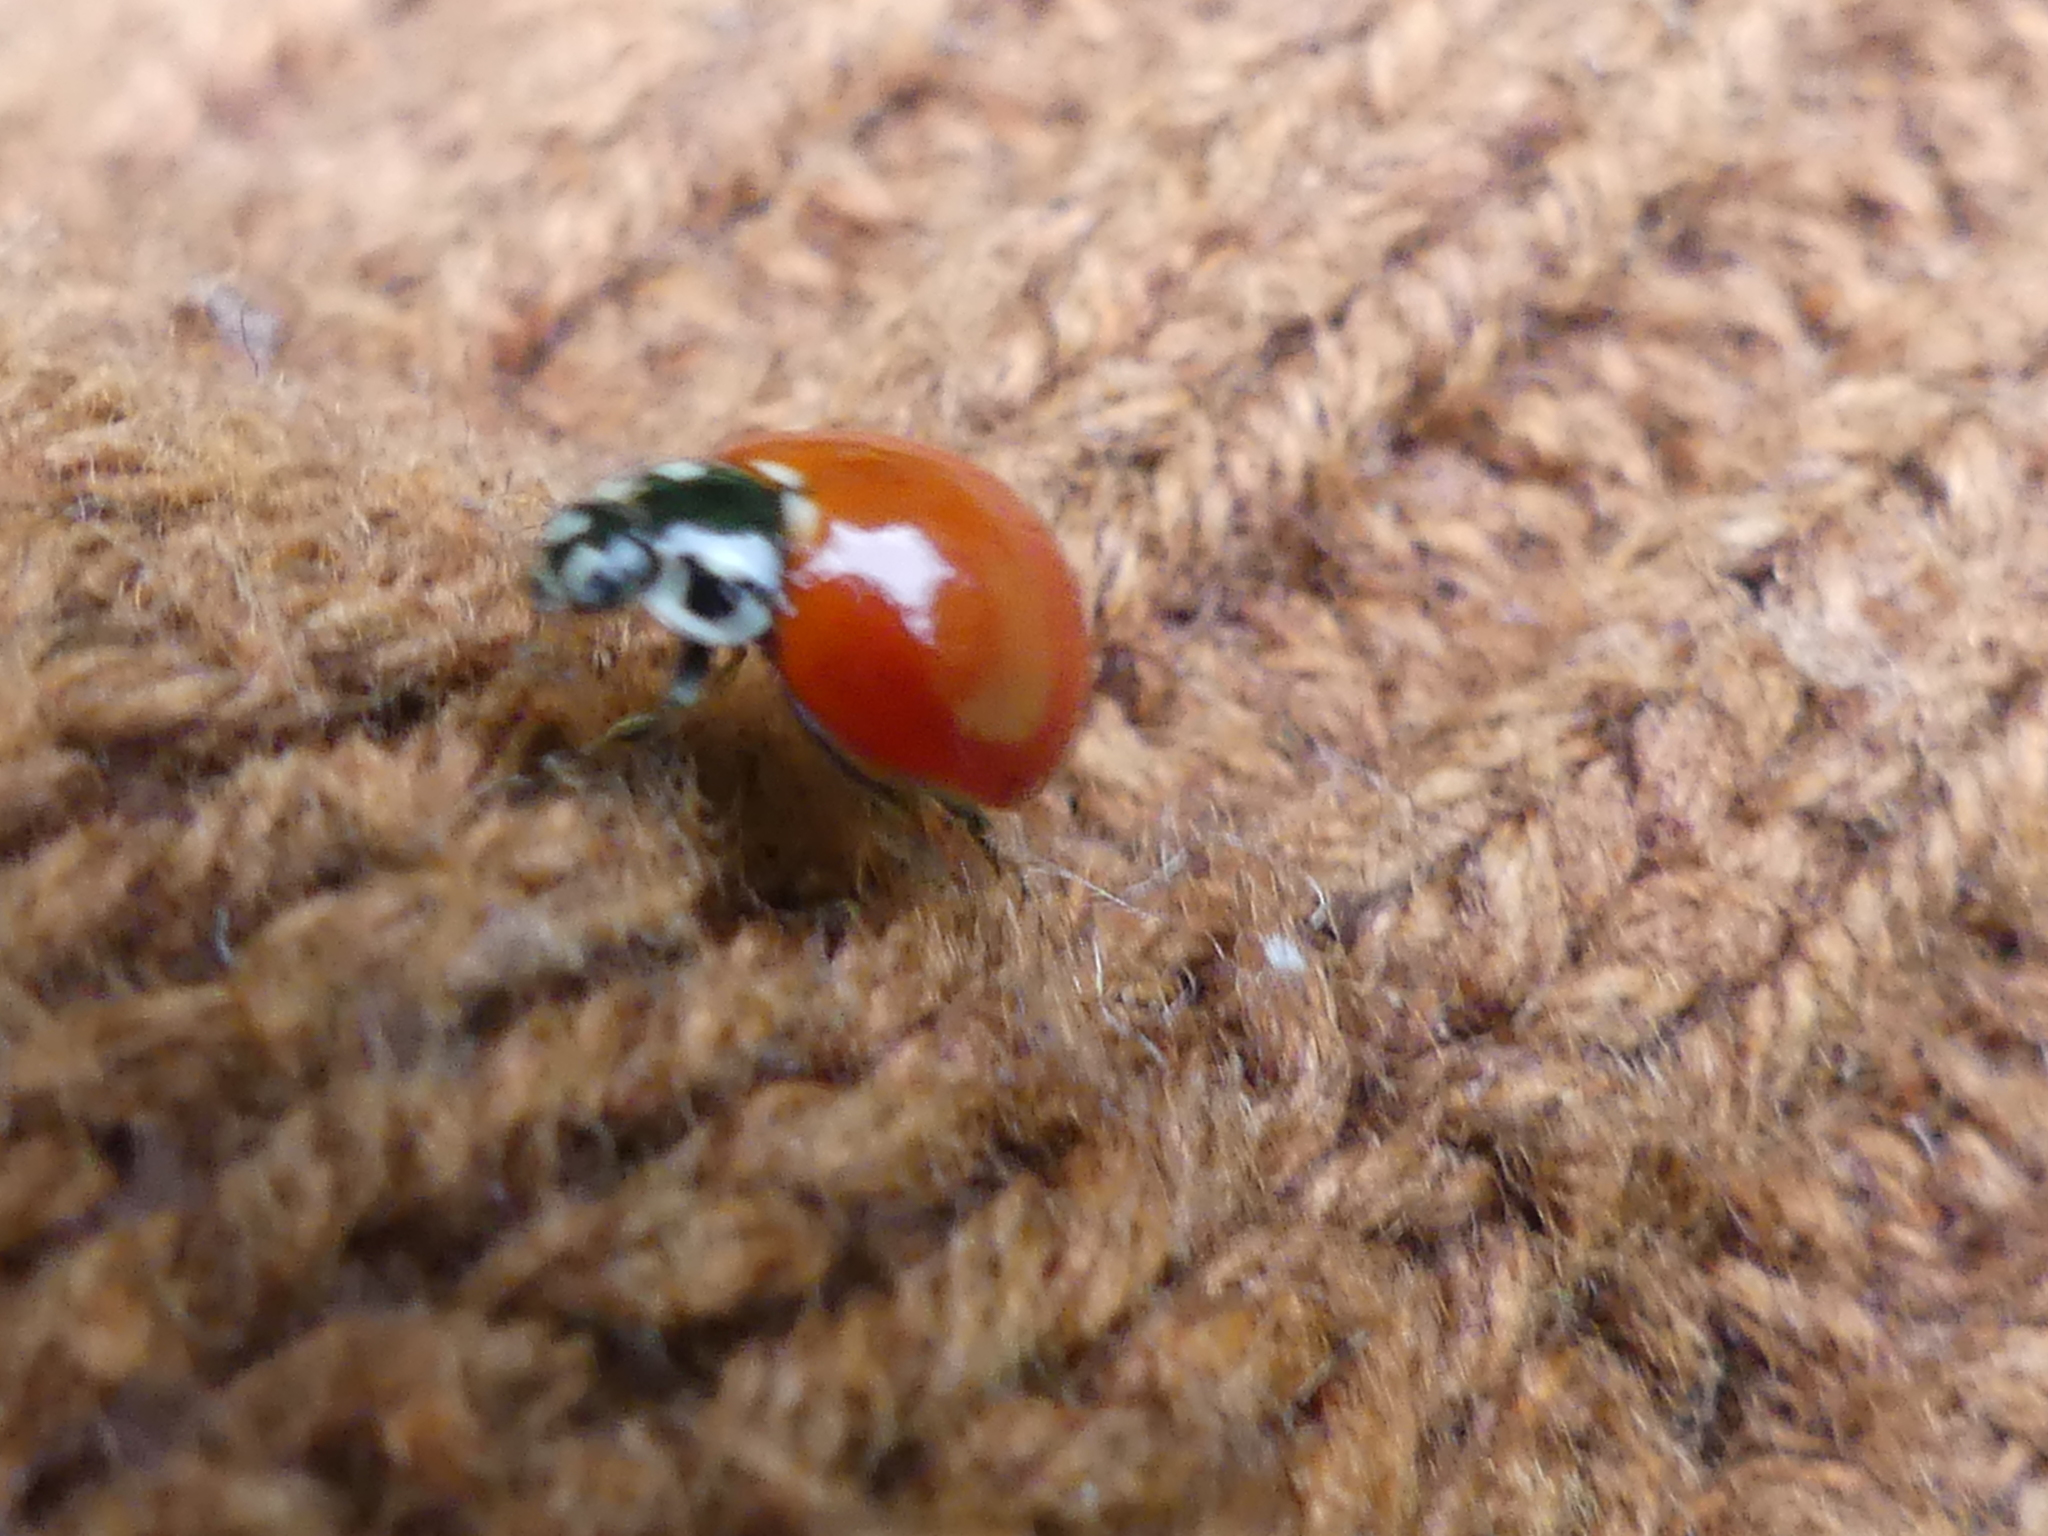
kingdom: Animalia
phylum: Arthropoda
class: Insecta
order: Coleoptera
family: Coccinellidae
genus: Cycloneda
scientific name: Cycloneda sanguinea
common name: Ladybird beetle
